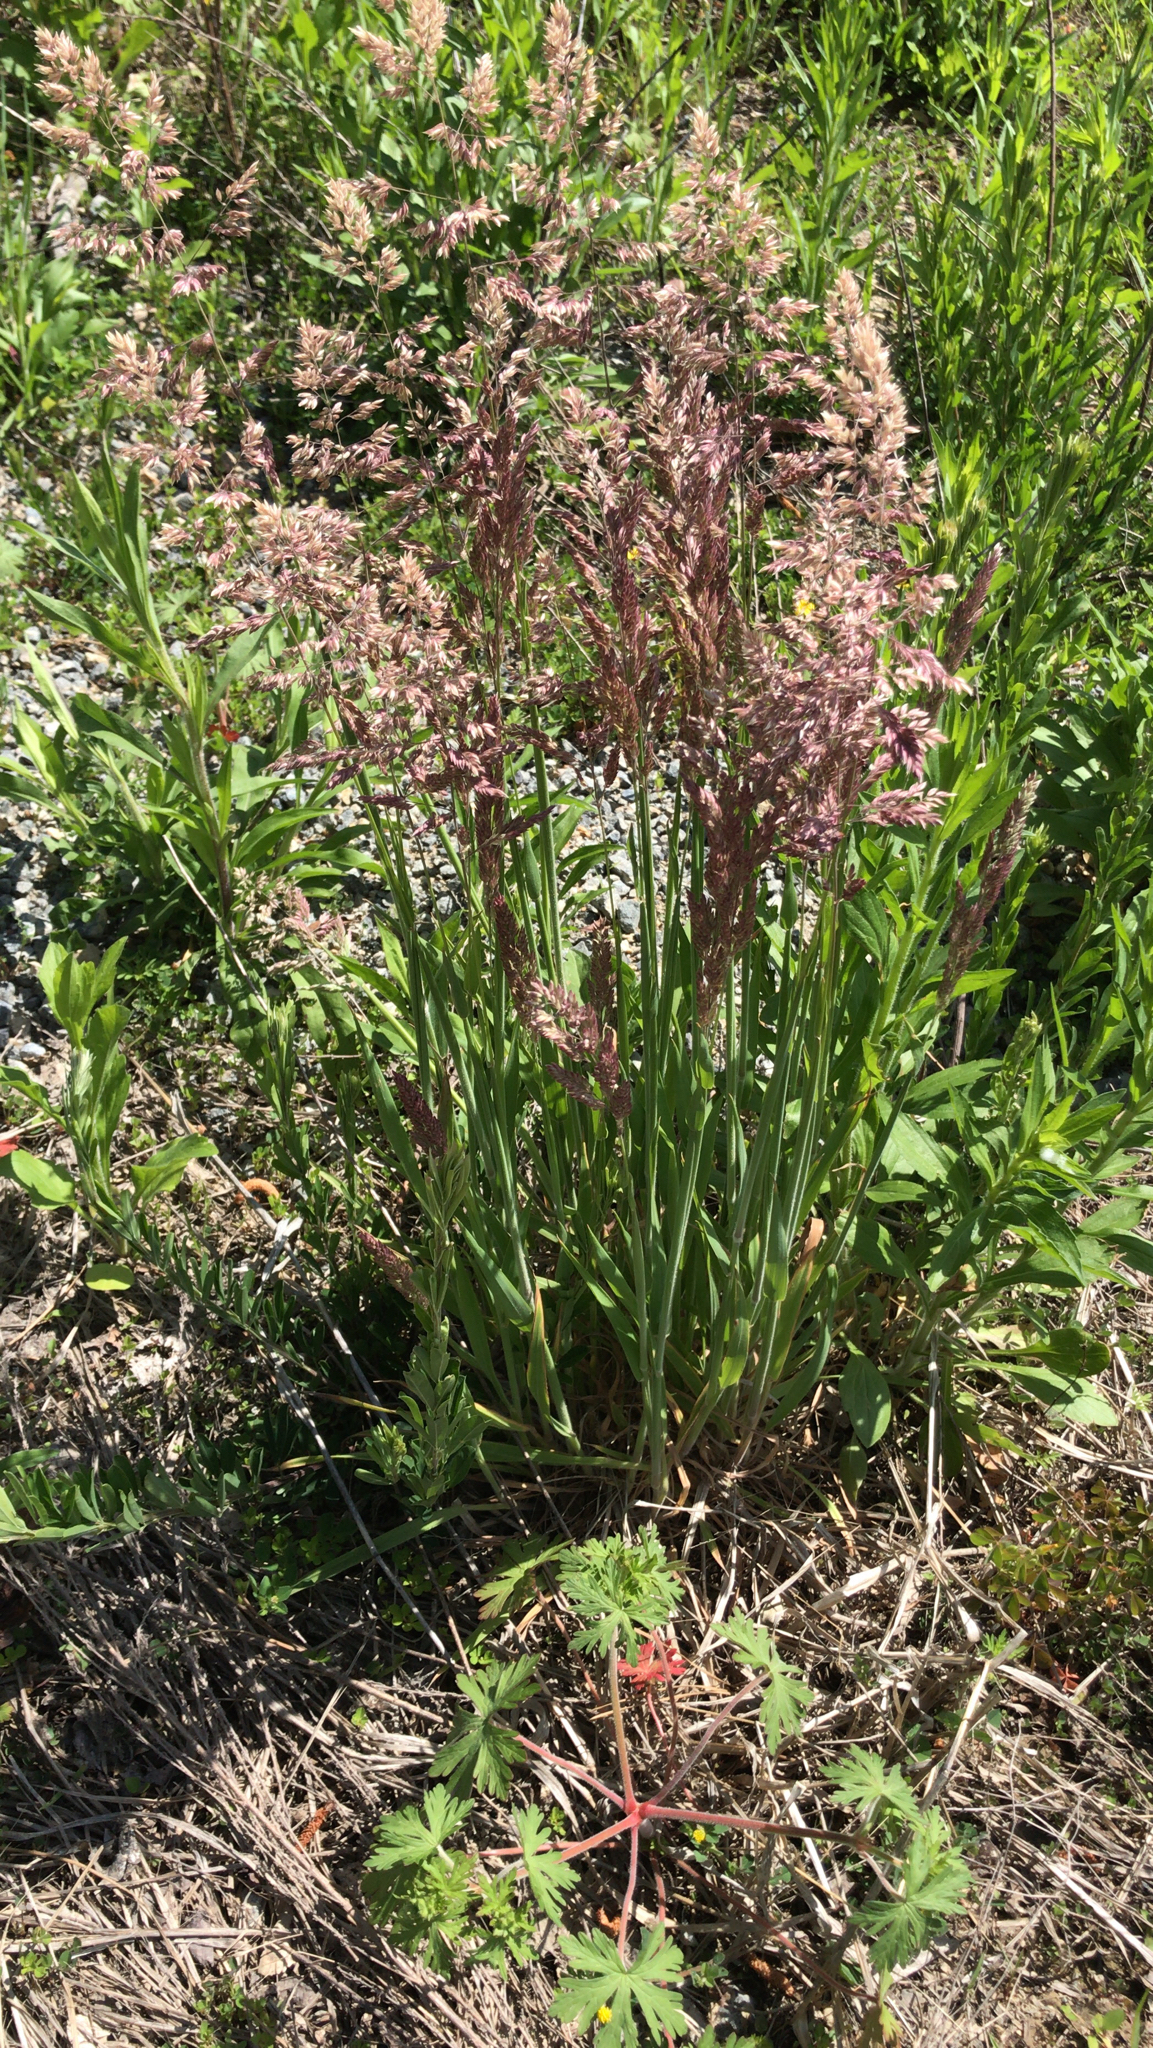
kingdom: Plantae
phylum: Tracheophyta
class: Liliopsida
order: Poales
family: Poaceae
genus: Holcus
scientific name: Holcus lanatus
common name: Yorkshire-fog
